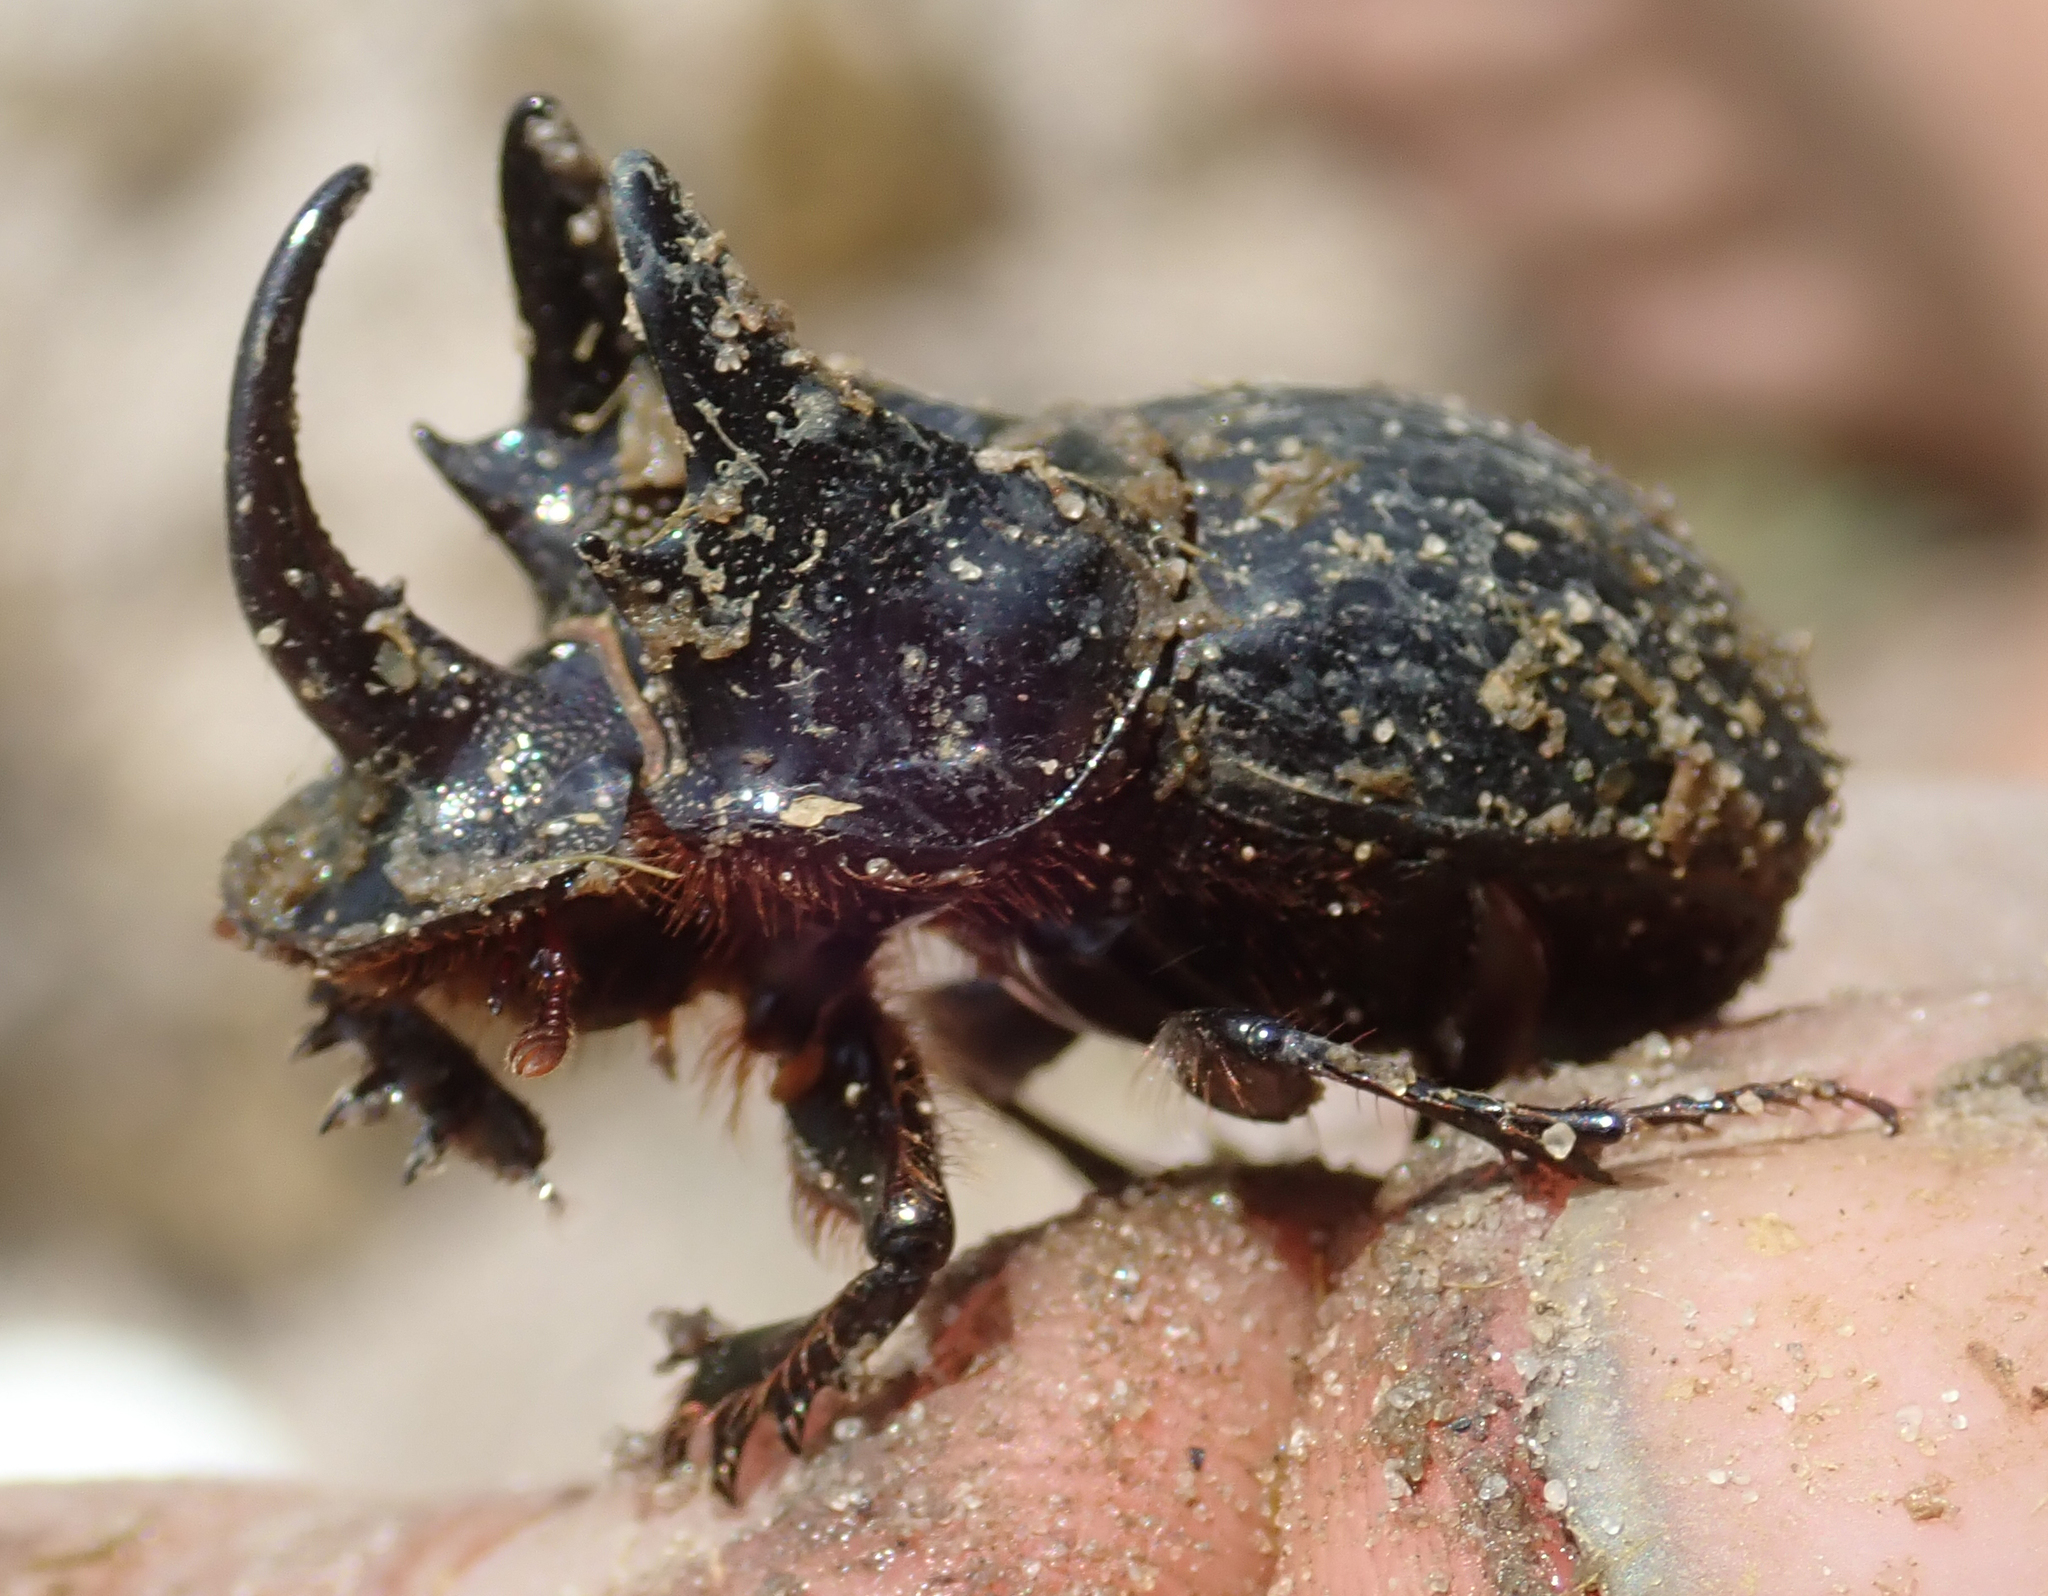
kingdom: Animalia
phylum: Arthropoda
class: Insecta
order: Coleoptera
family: Scarabaeidae
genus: Copris
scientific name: Copris bootes
